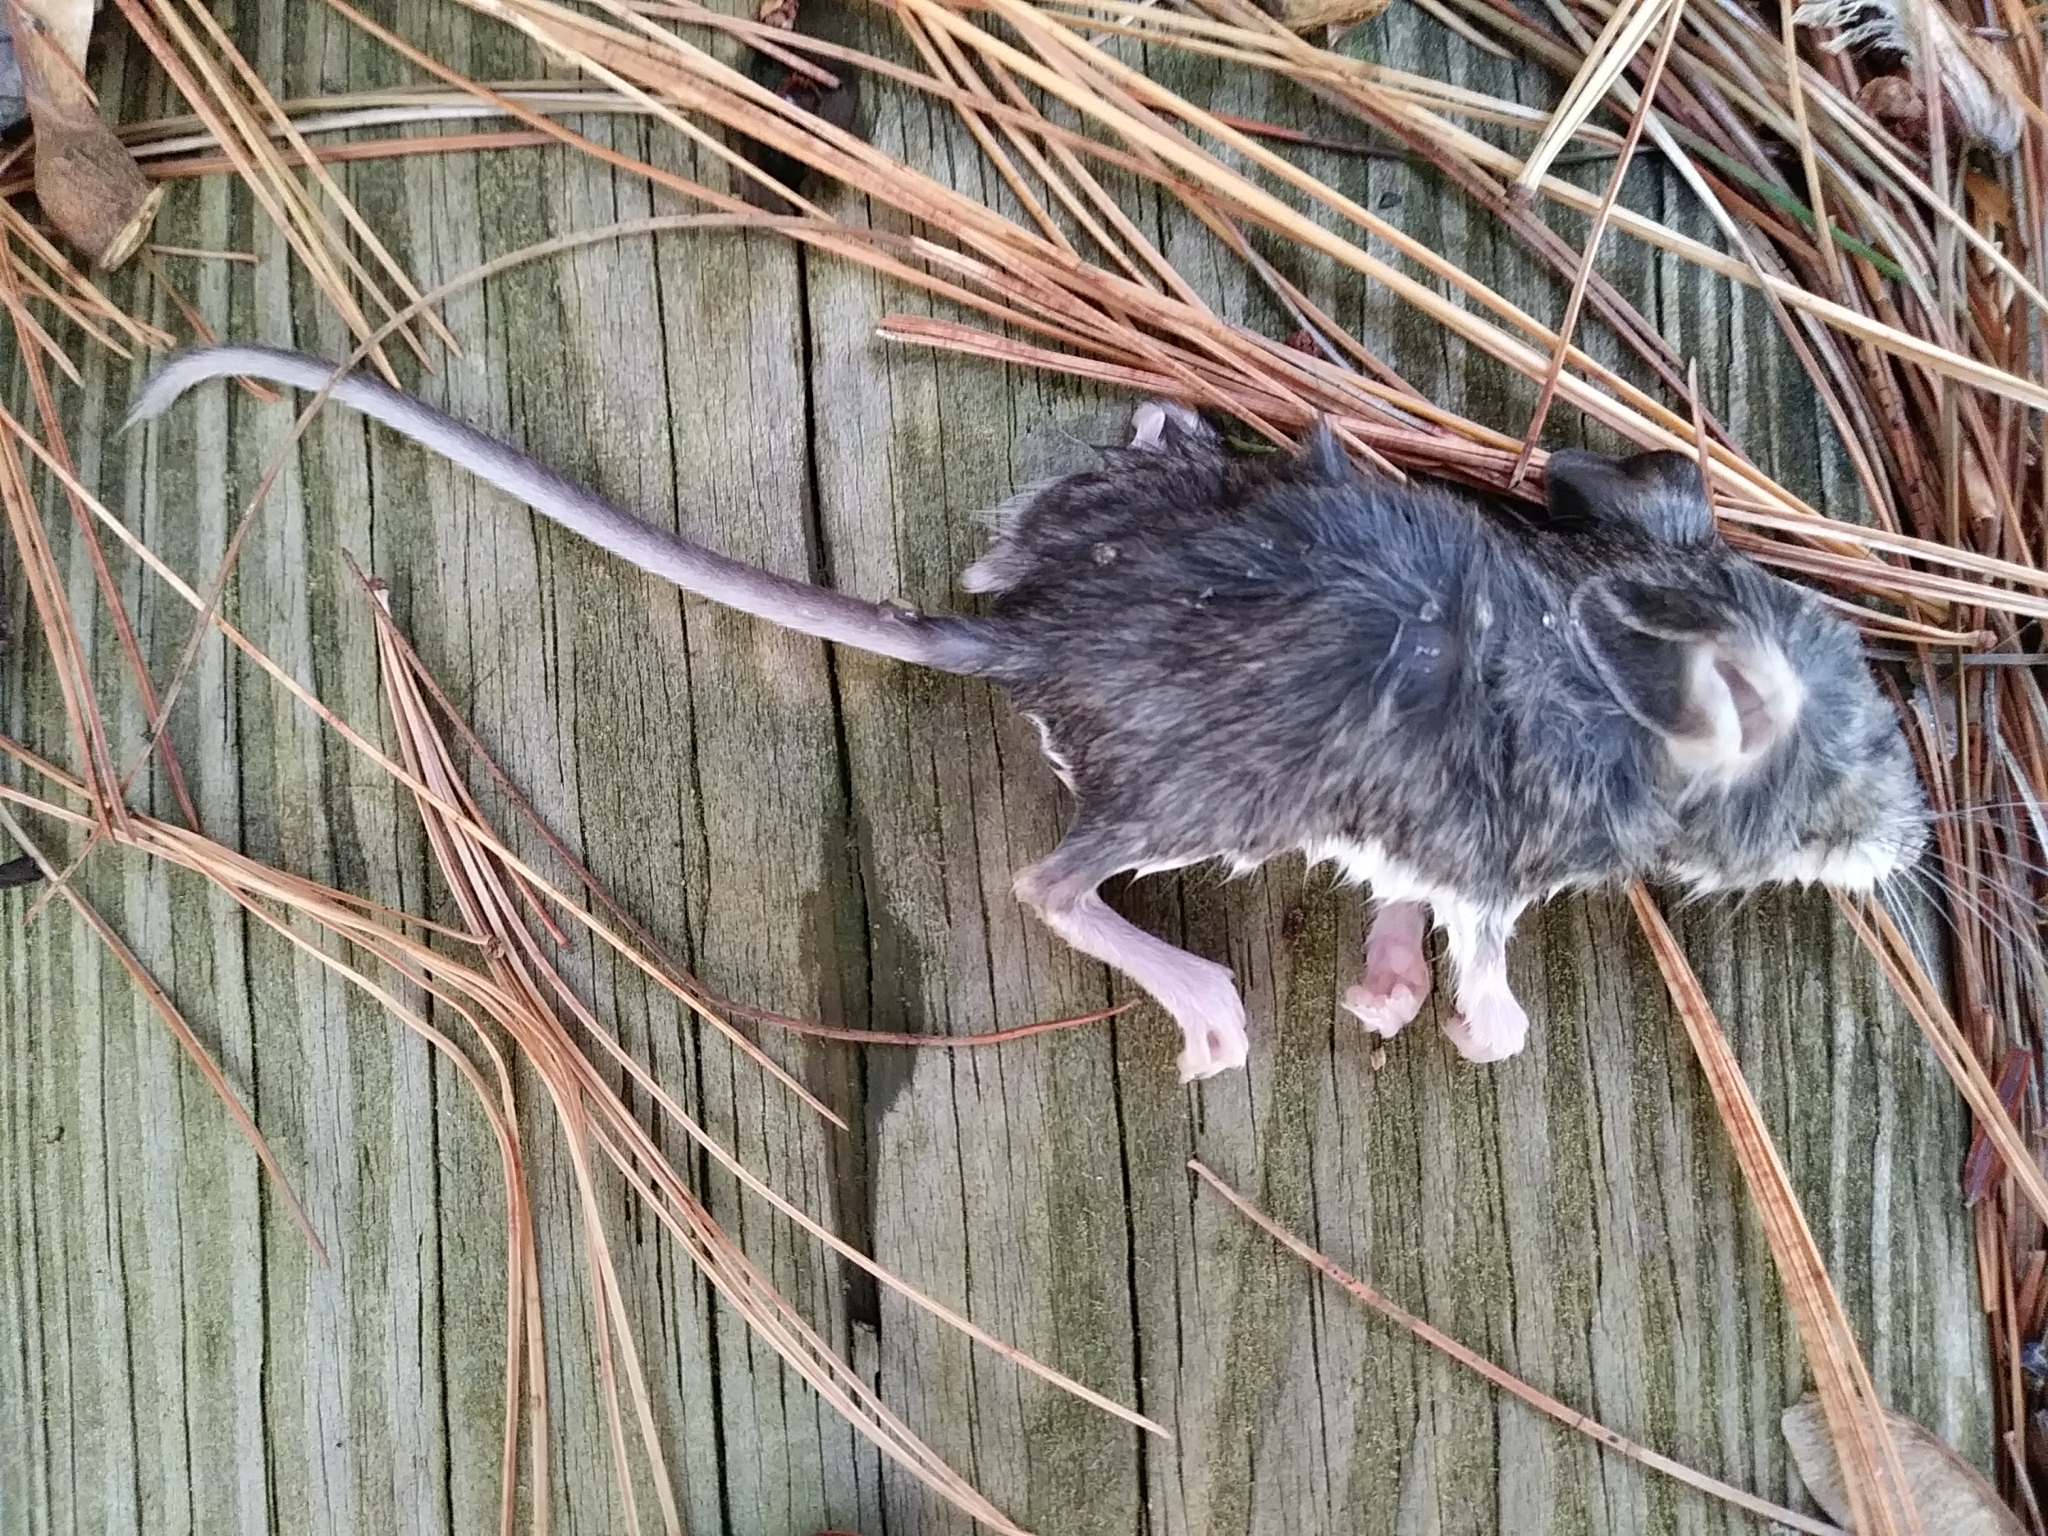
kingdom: Animalia
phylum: Chordata
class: Mammalia
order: Rodentia
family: Cricetidae
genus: Peromyscus
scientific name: Peromyscus
